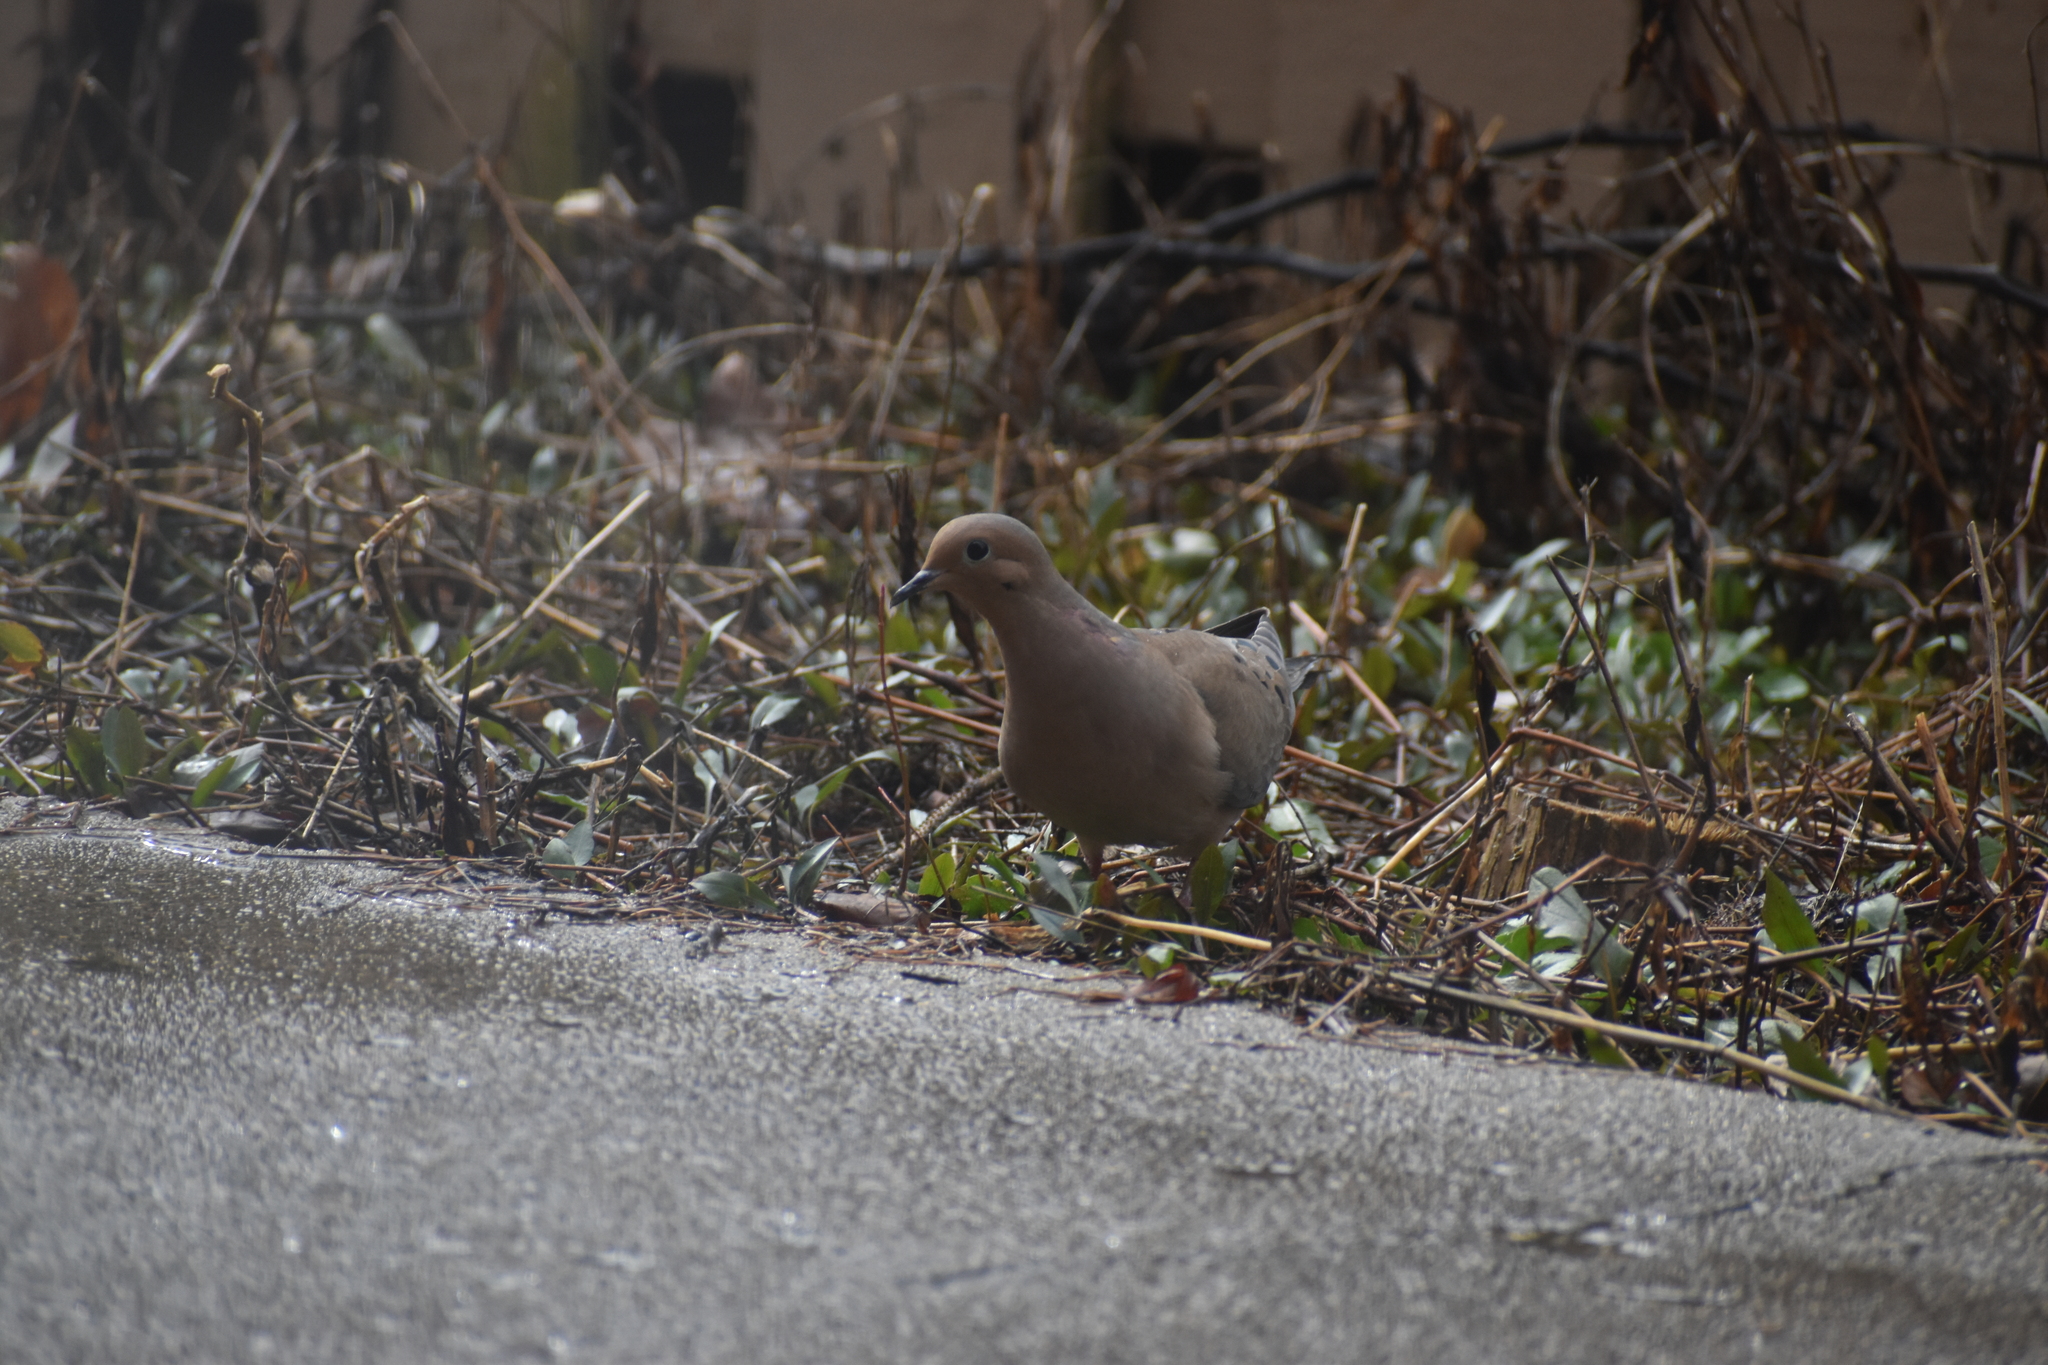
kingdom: Animalia
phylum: Chordata
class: Aves
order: Columbiformes
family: Columbidae
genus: Zenaida
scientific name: Zenaida macroura
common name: Mourning dove
